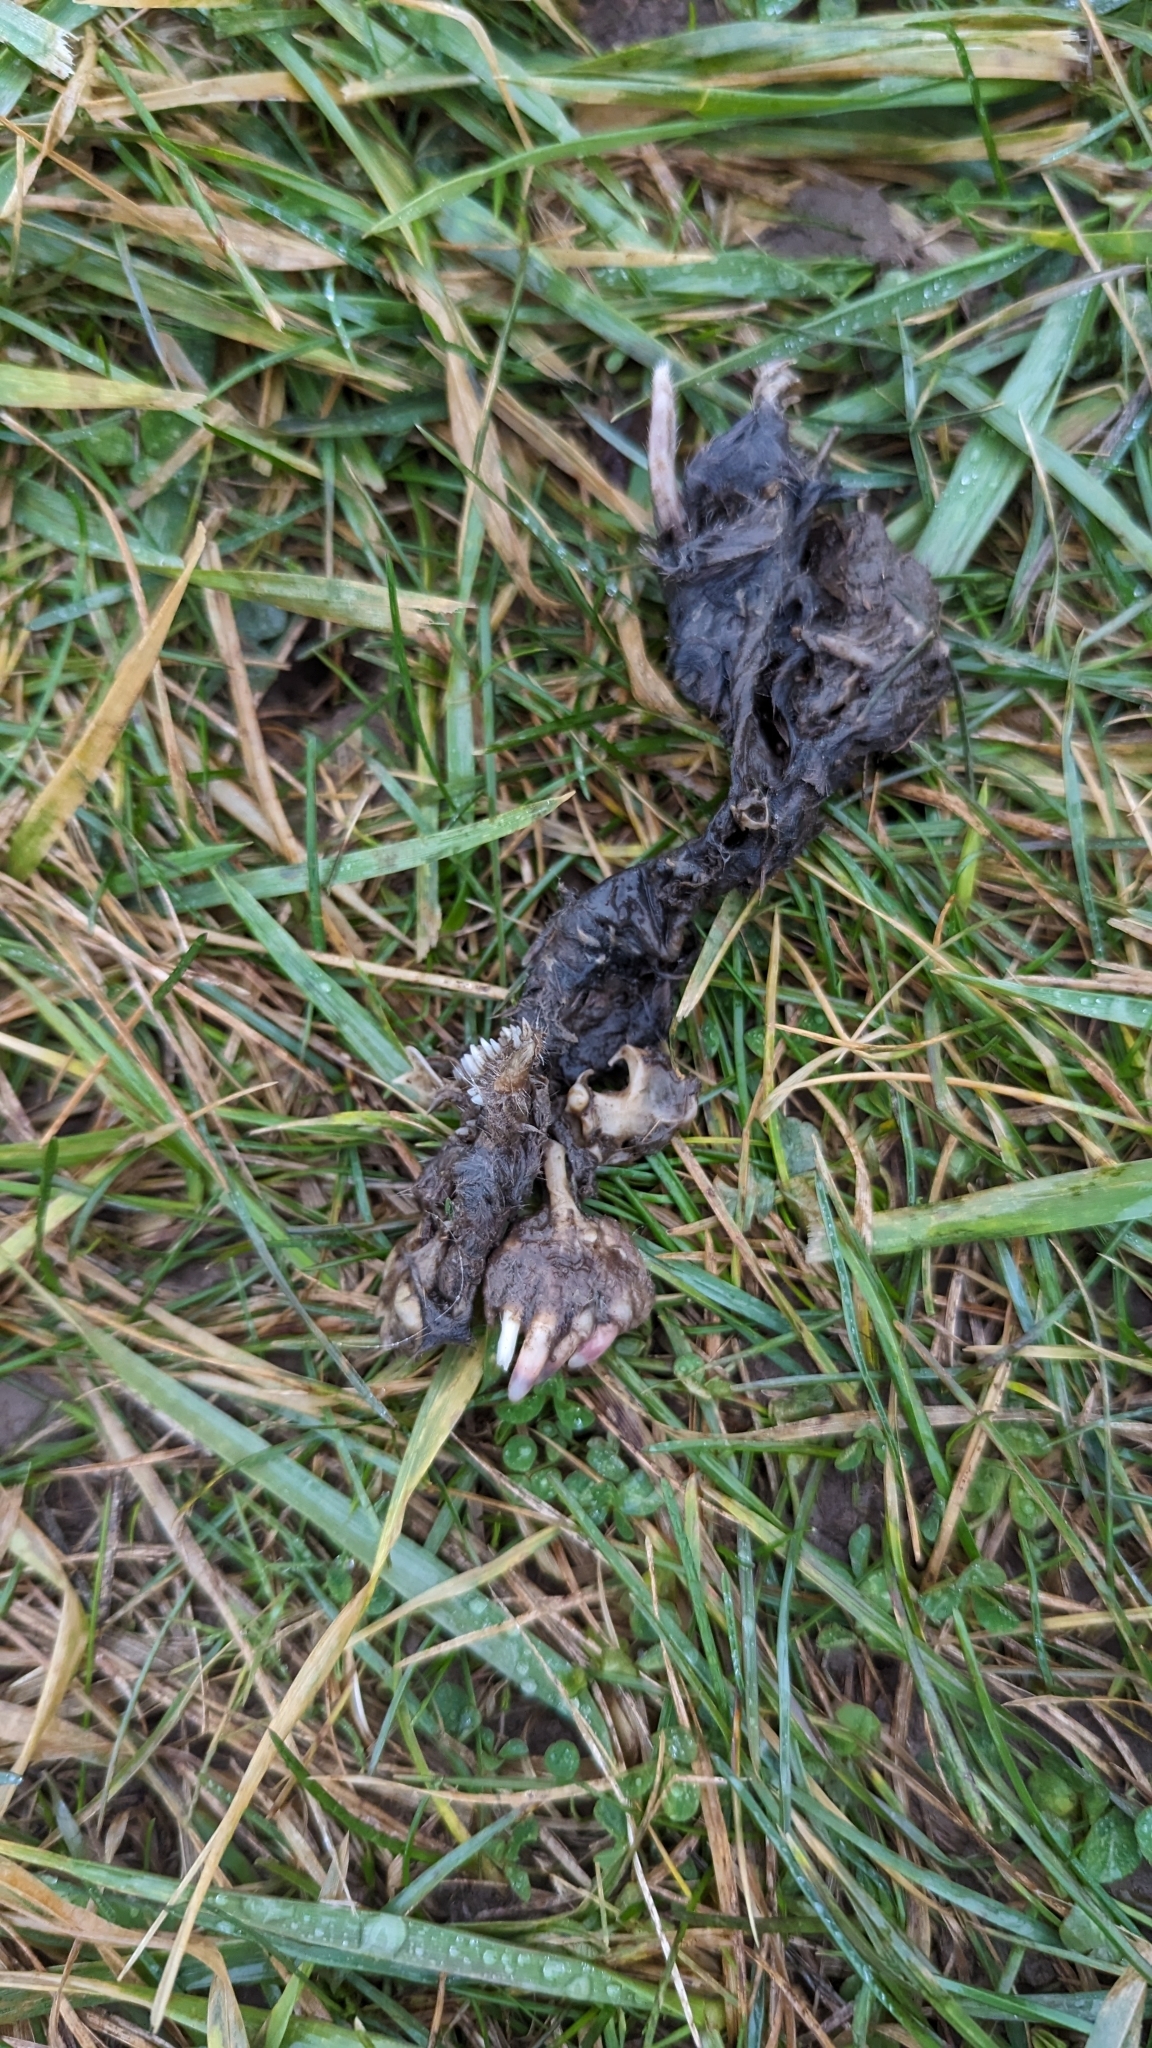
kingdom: Animalia
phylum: Chordata
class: Mammalia
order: Soricomorpha
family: Talpidae
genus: Scalopus
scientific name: Scalopus aquaticus
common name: Eastern mole
